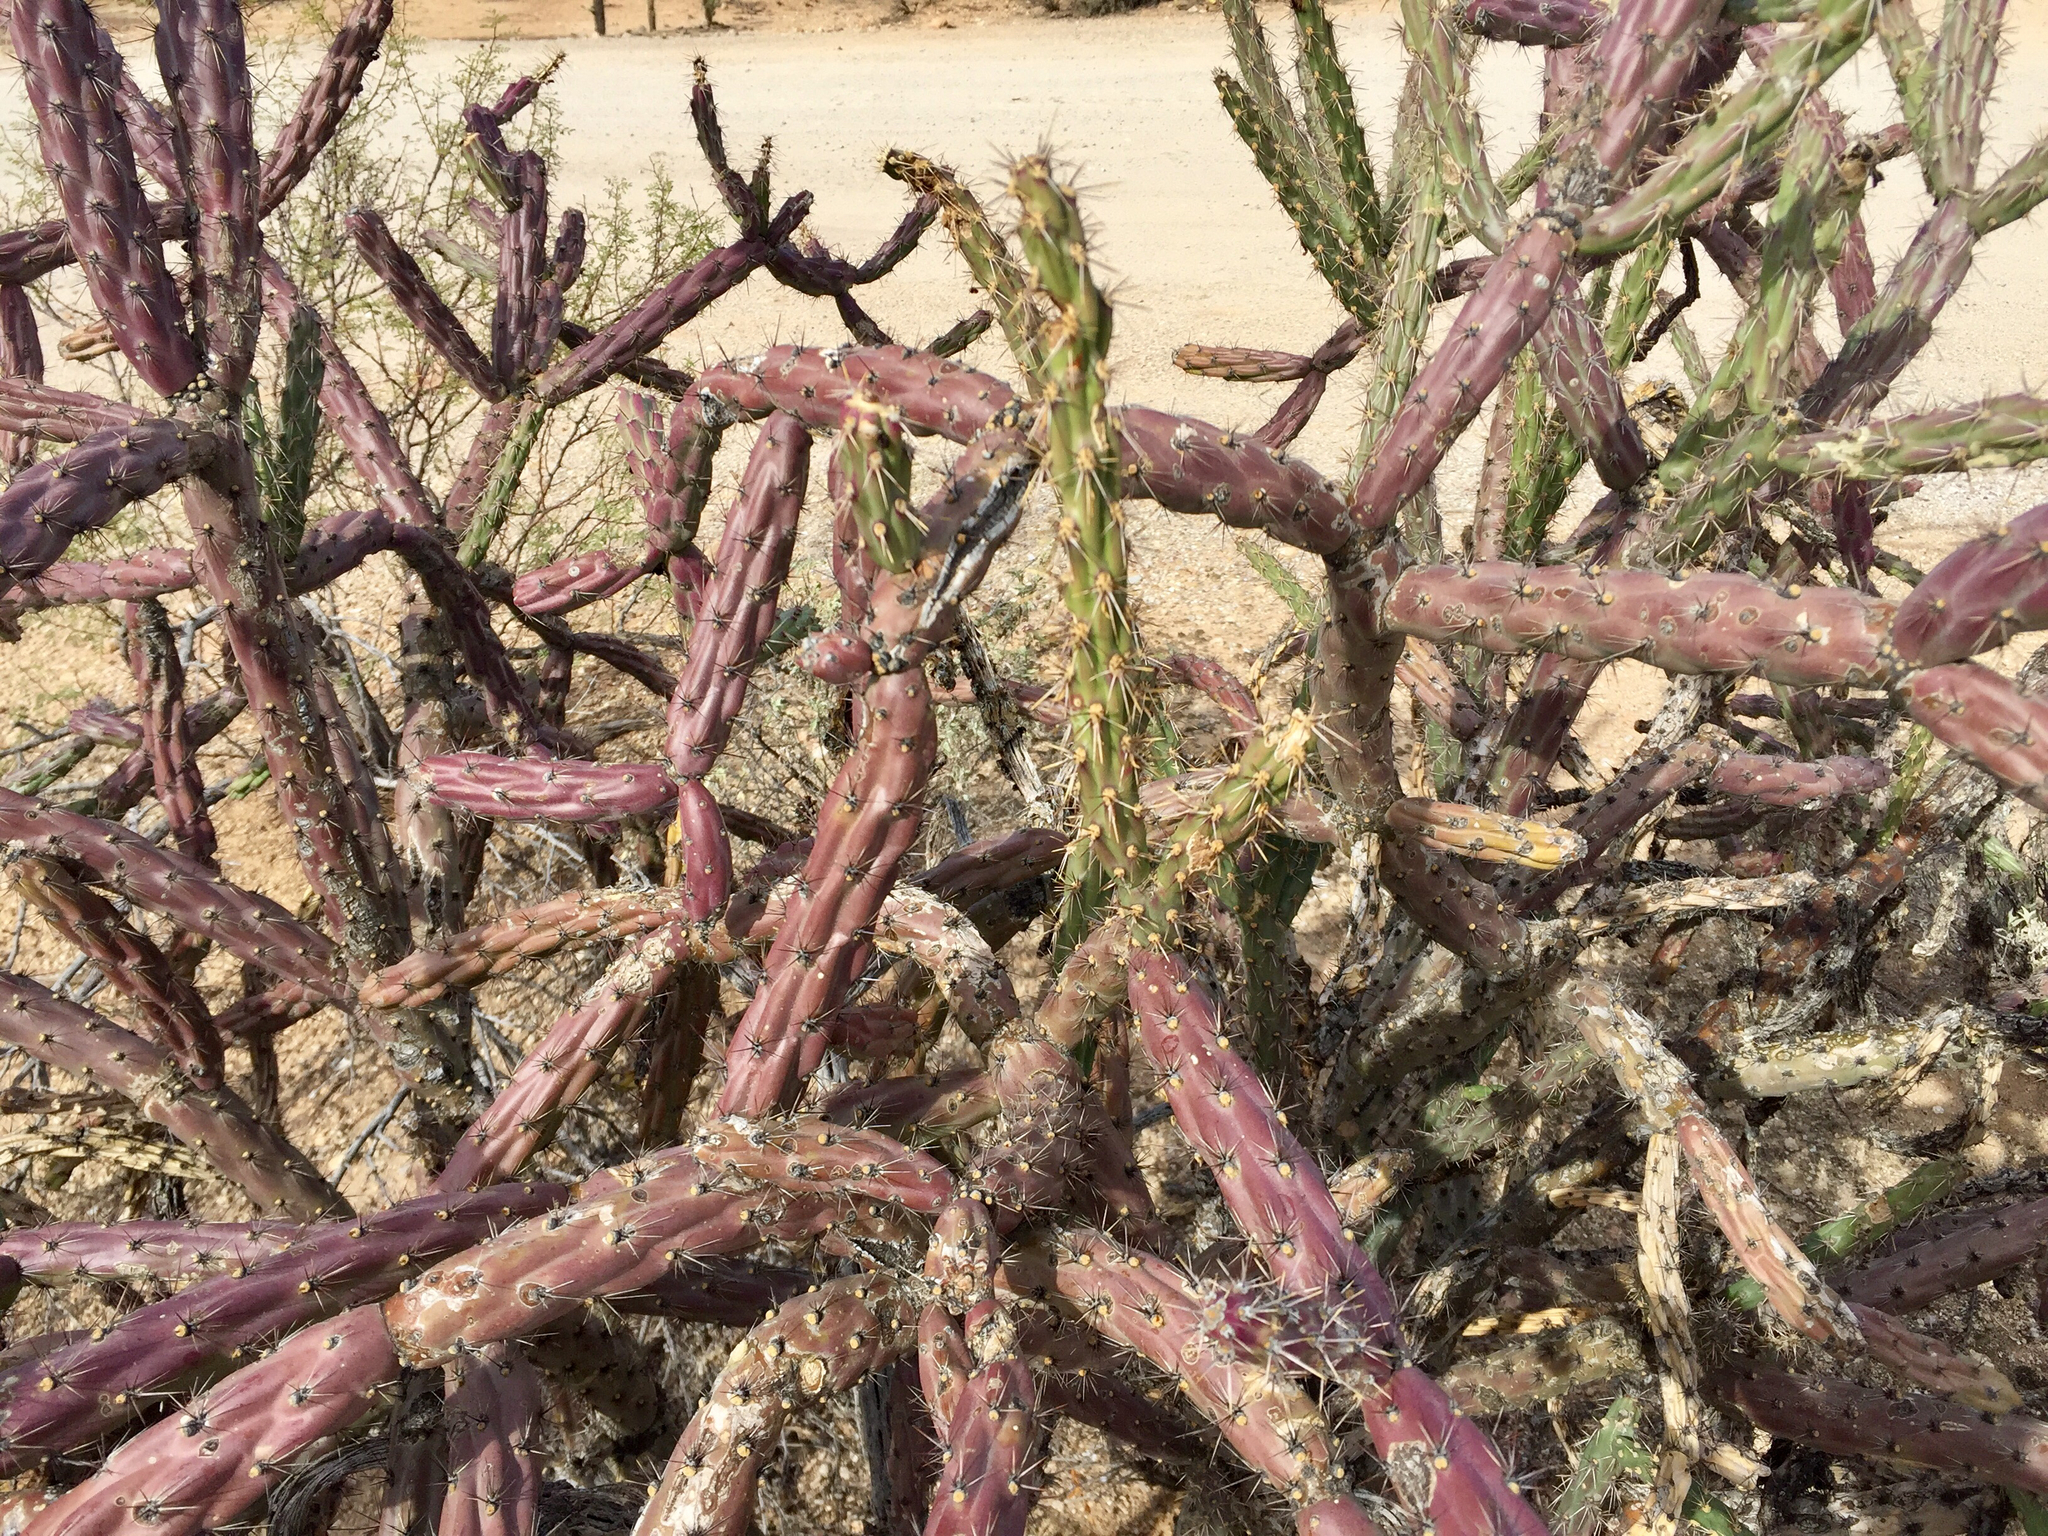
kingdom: Plantae
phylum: Tracheophyta
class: Magnoliopsida
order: Caryophyllales
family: Cactaceae
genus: Cylindropuntia
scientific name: Cylindropuntia thurberi
